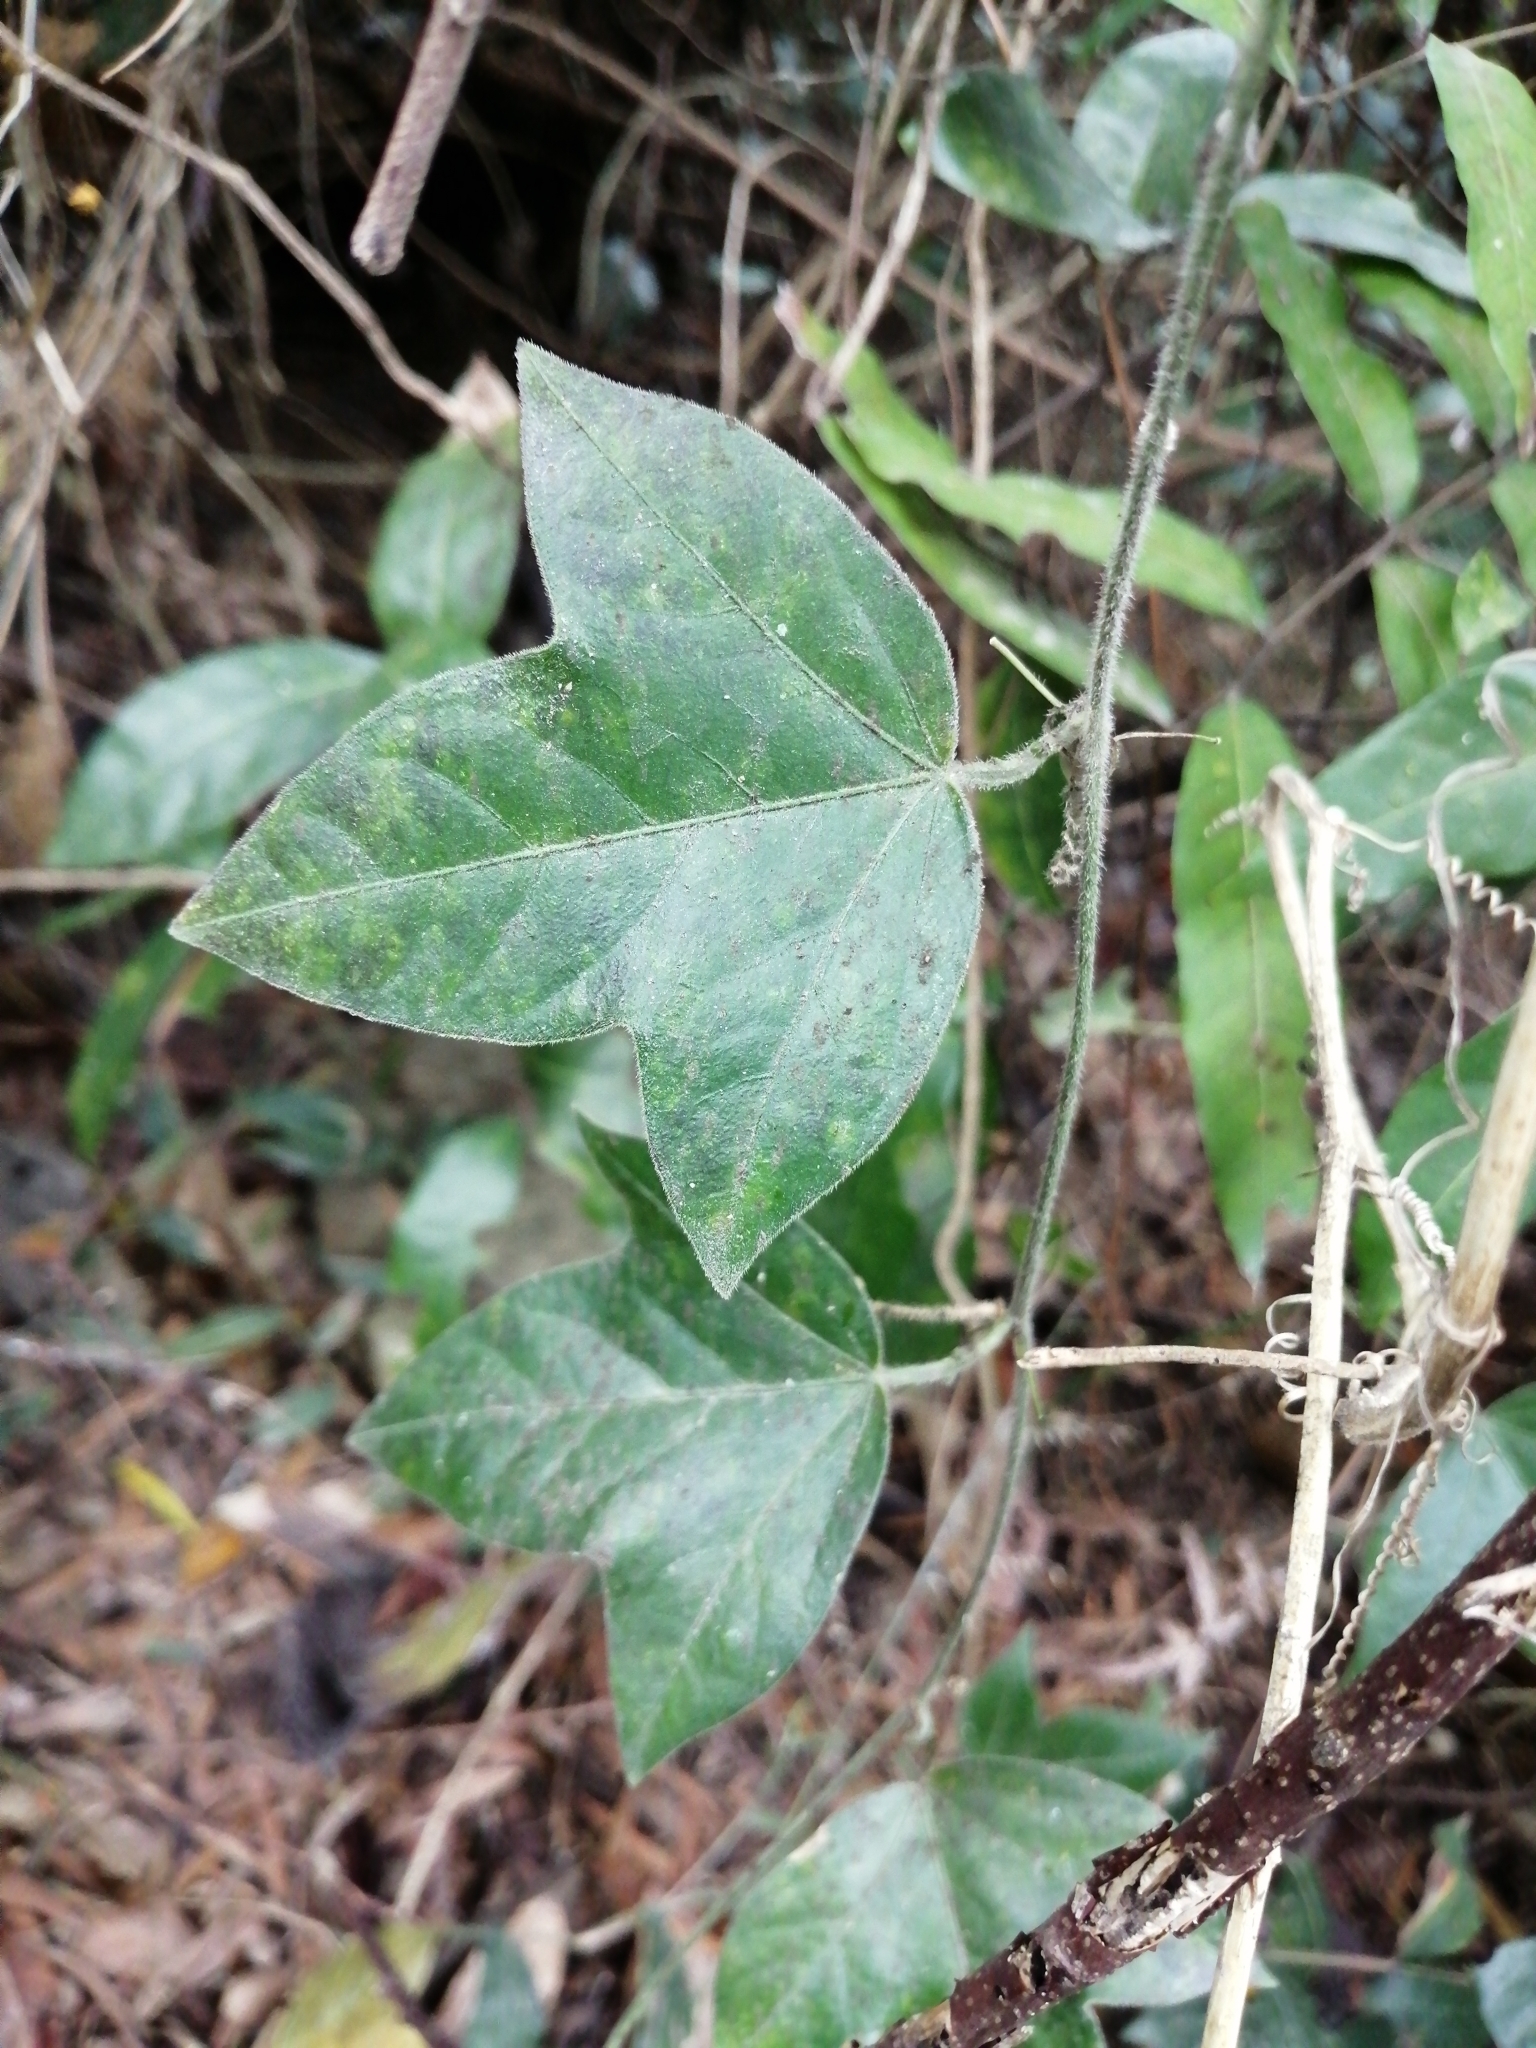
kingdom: Plantae
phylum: Tracheophyta
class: Magnoliopsida
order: Malpighiales
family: Passifloraceae
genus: Passiflora
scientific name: Passiflora suberosa
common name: Wild passionfruit
